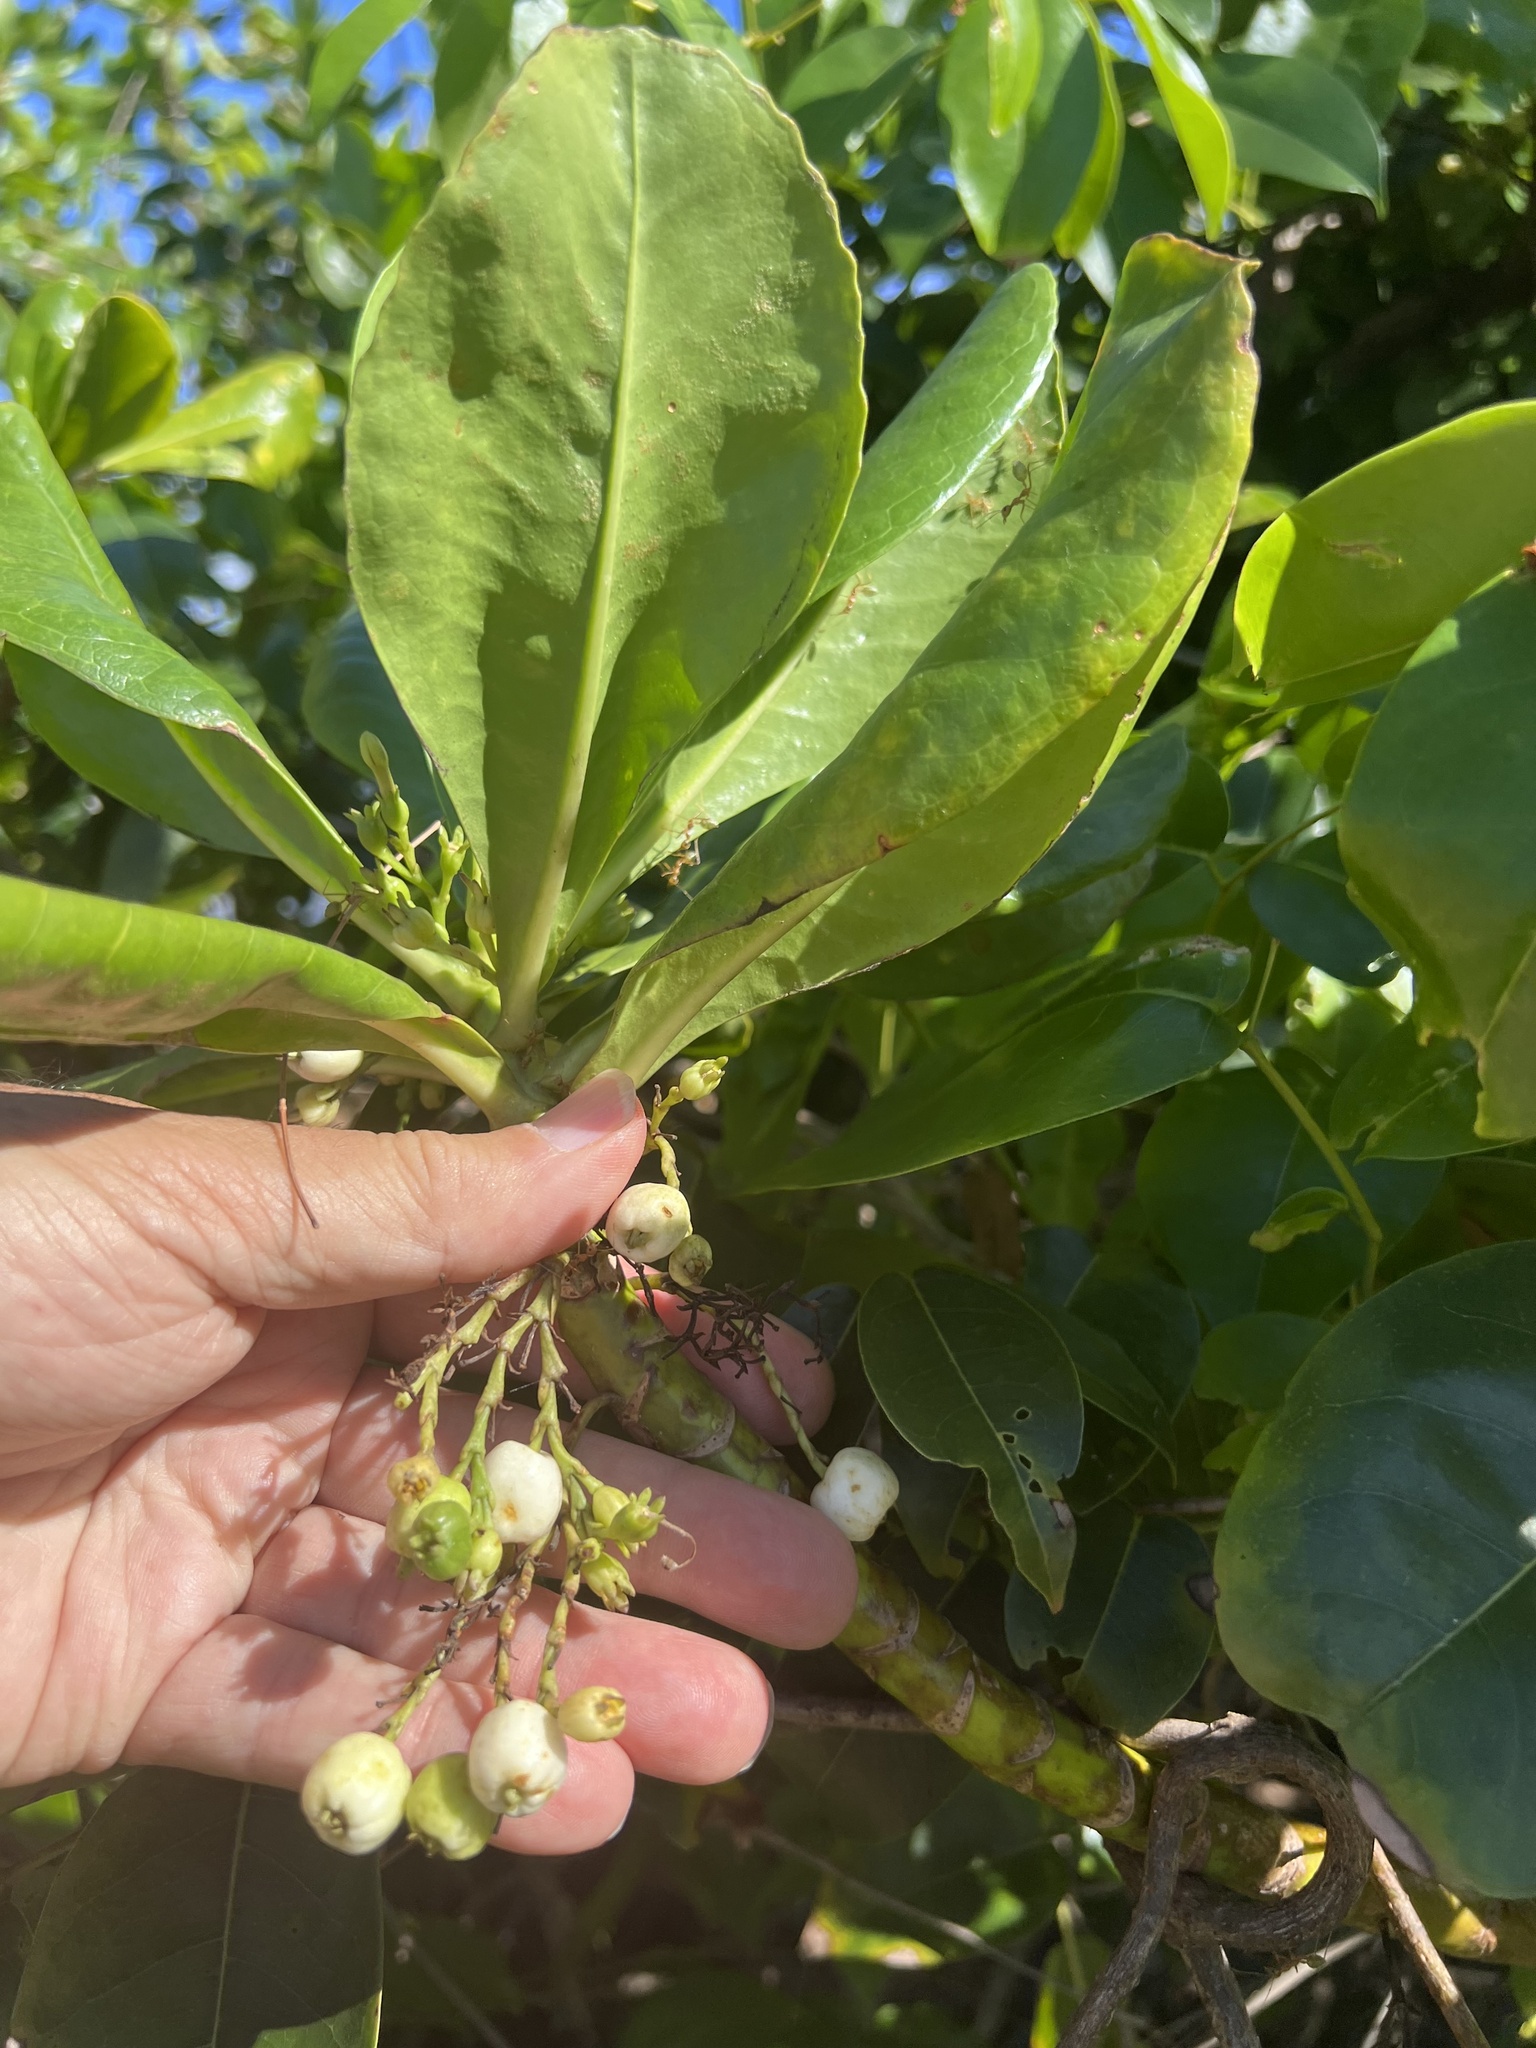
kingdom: Plantae
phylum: Tracheophyta
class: Magnoliopsida
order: Asterales
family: Goodeniaceae
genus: Scaevola
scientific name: Scaevola taccada
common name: Sea lettucetree
